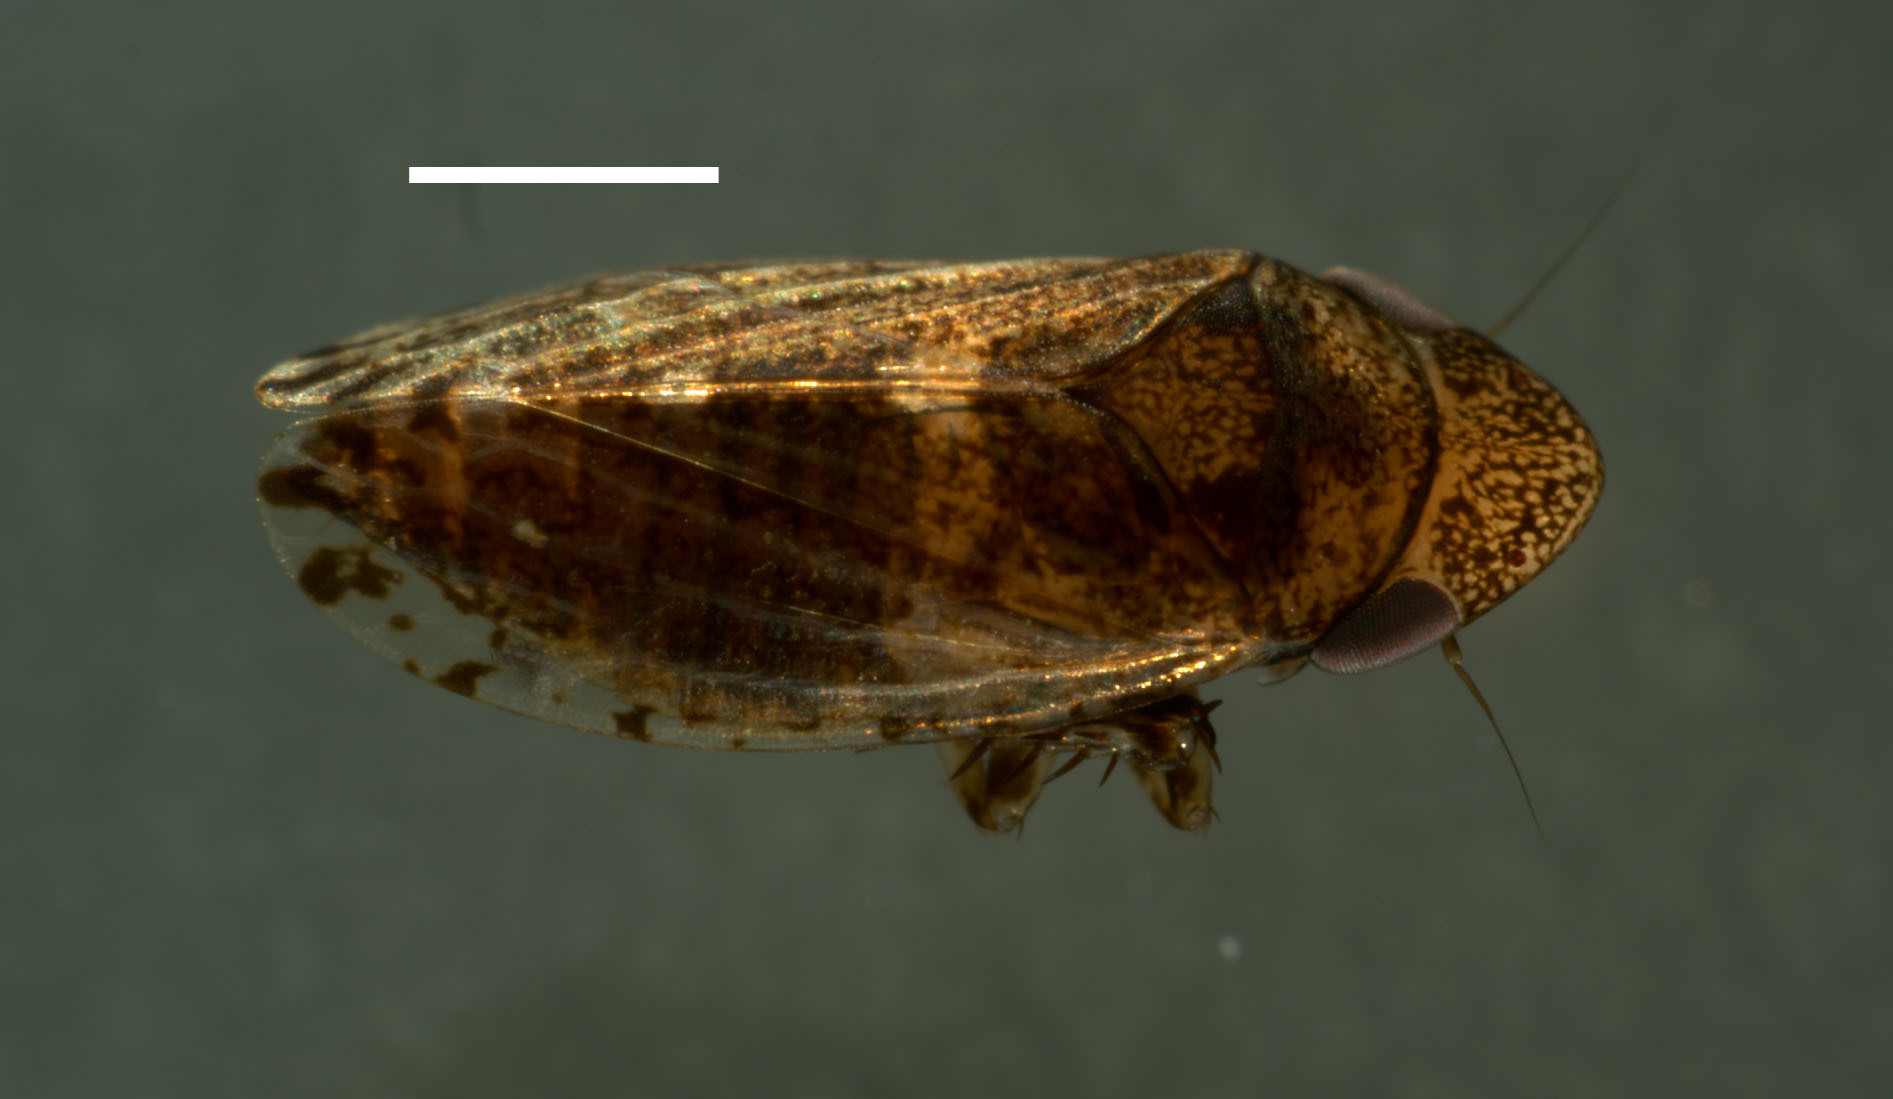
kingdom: Animalia
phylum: Arthropoda
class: Insecta
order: Hemiptera
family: Cicadellidae
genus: Anoscopus
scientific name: Anoscopus serratulae
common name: Leafhopper
